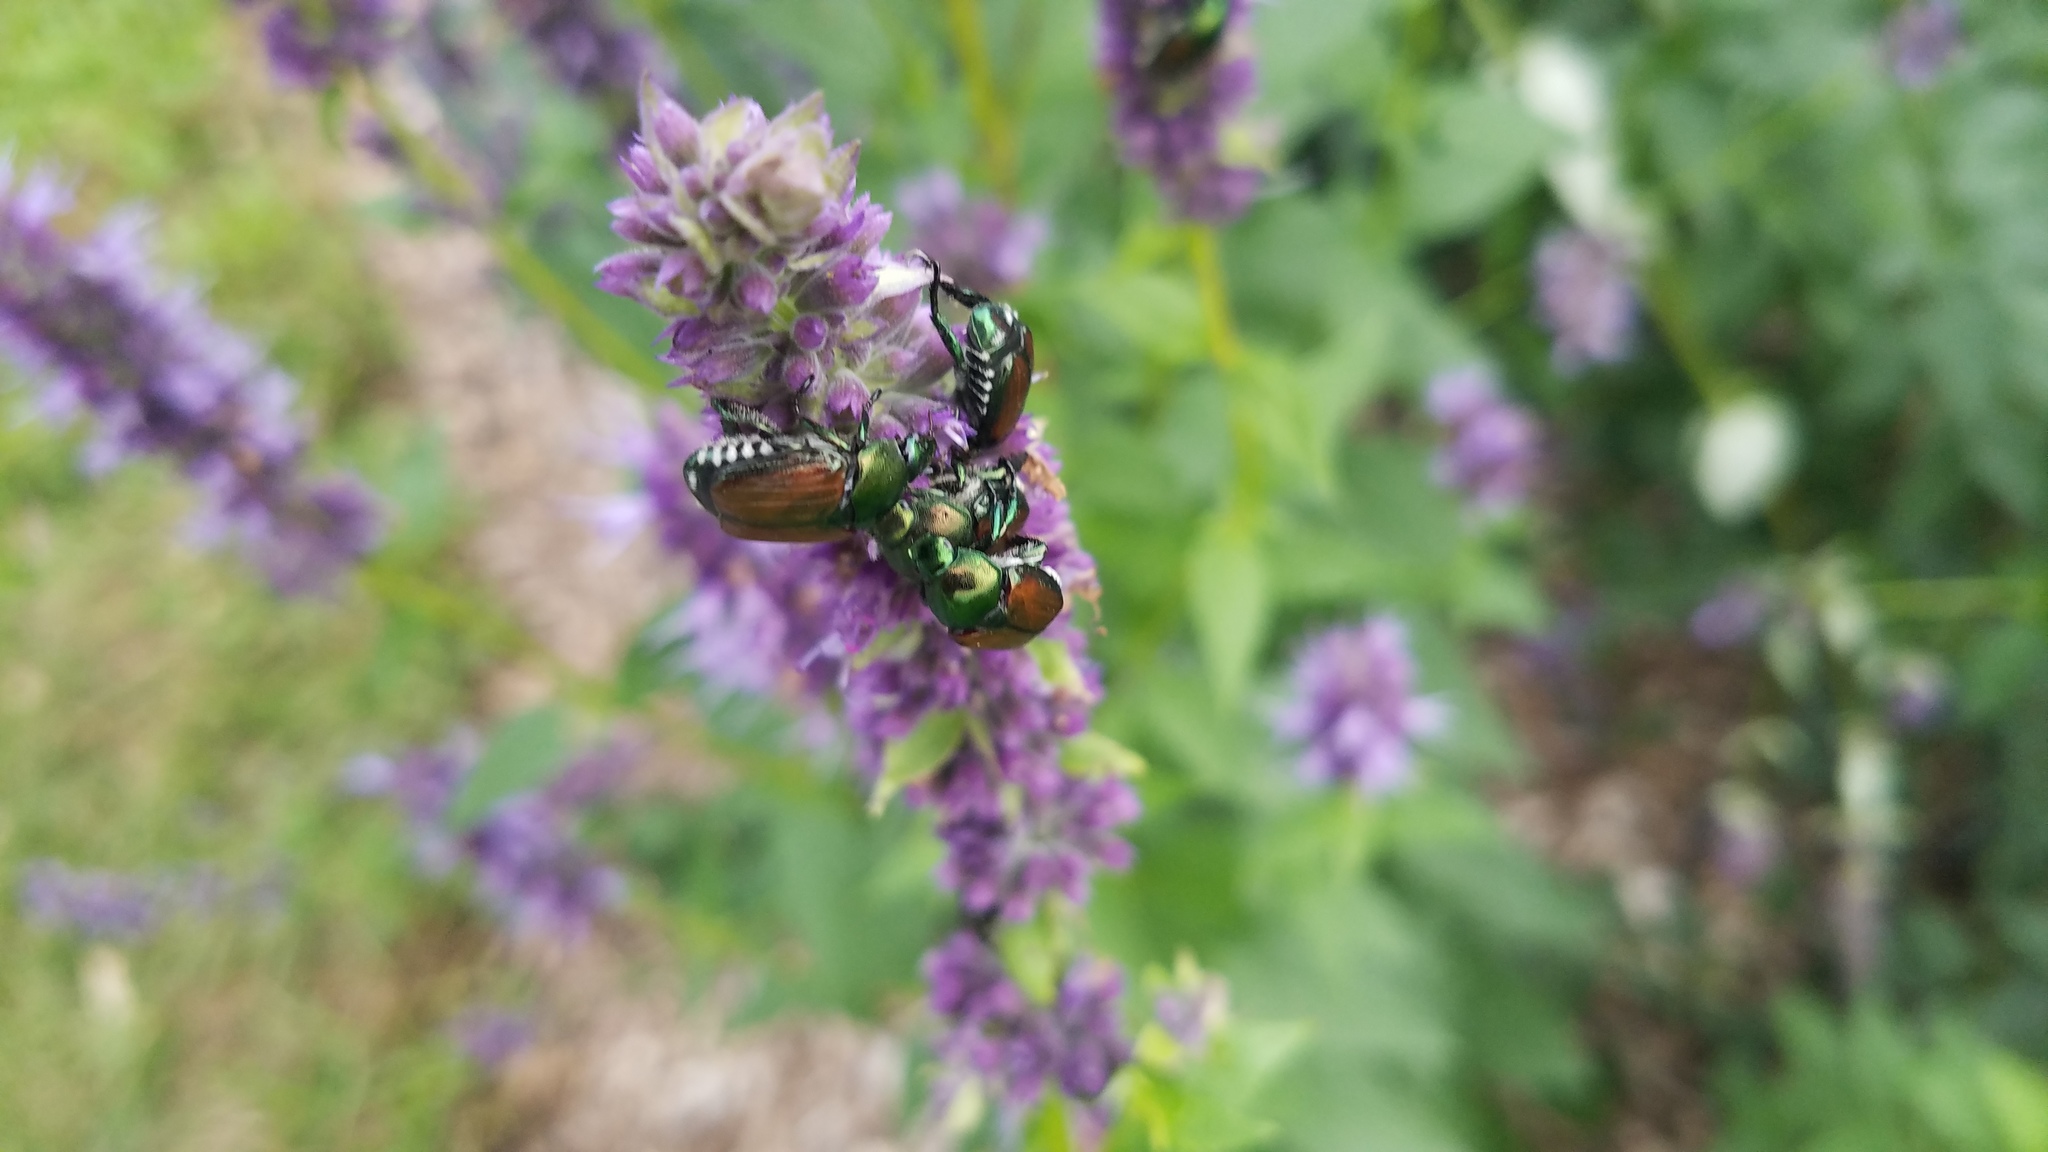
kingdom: Animalia
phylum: Arthropoda
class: Insecta
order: Coleoptera
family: Scarabaeidae
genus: Popillia
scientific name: Popillia japonica
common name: Japanese beetle
